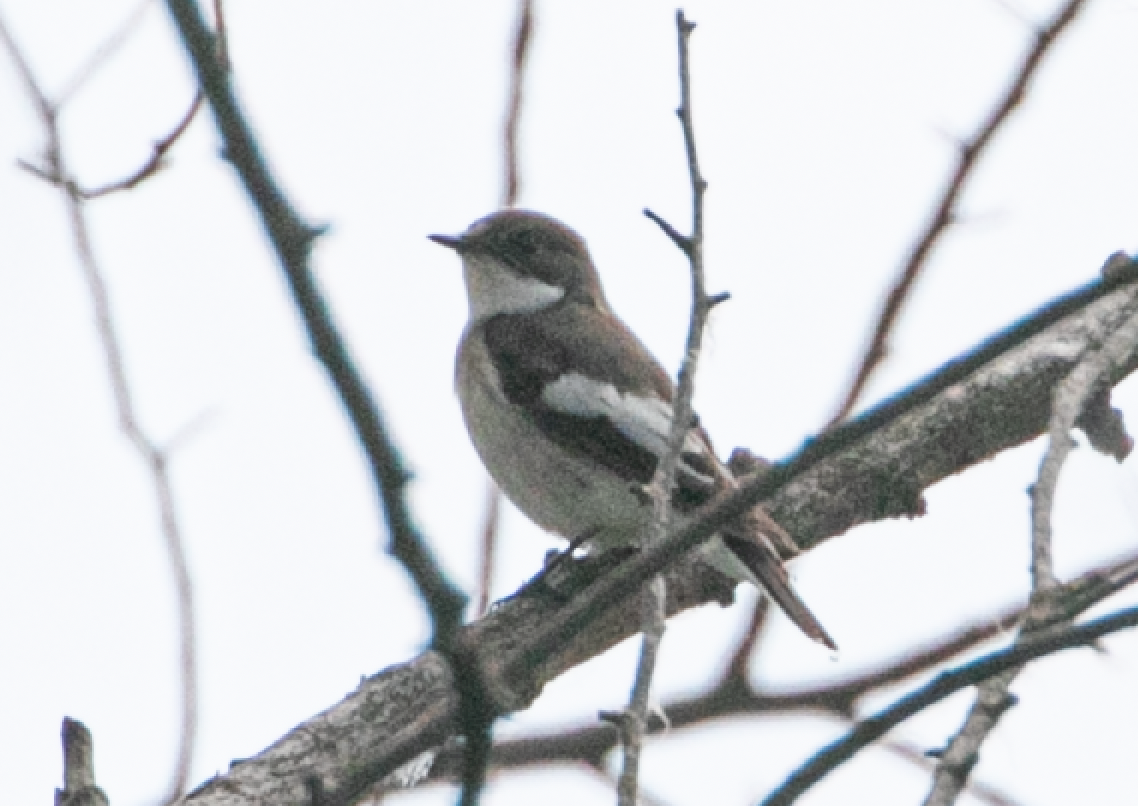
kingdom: Animalia
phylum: Chordata
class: Aves
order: Passeriformes
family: Muscicapidae
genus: Ficedula
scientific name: Ficedula hypoleuca
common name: European pied flycatcher
